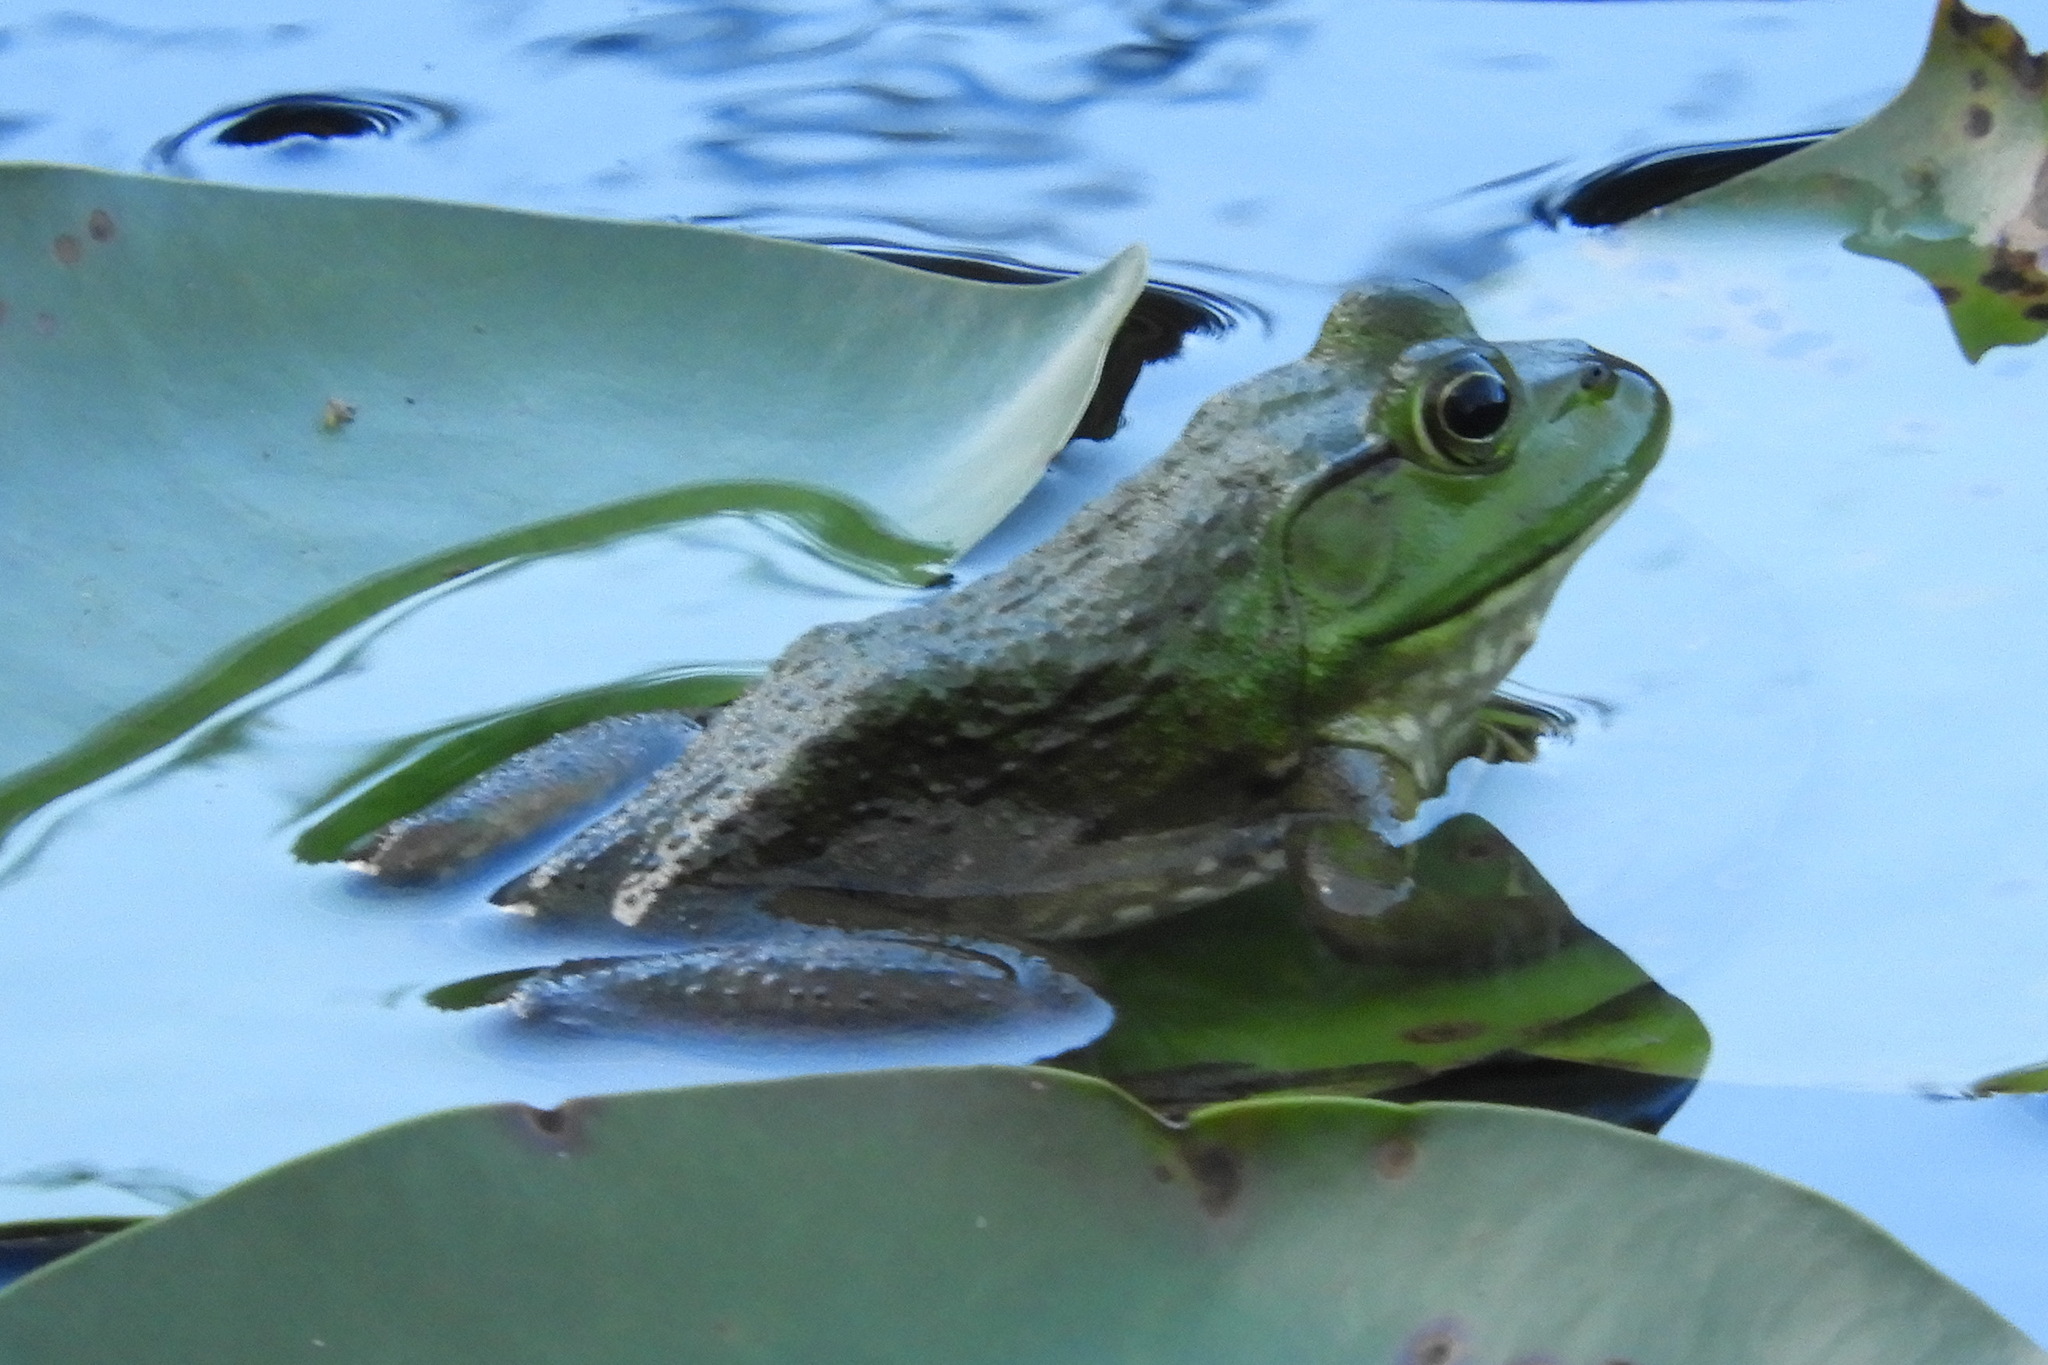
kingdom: Animalia
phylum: Chordata
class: Amphibia
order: Anura
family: Ranidae
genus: Lithobates
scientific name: Lithobates catesbeianus
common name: American bullfrog
